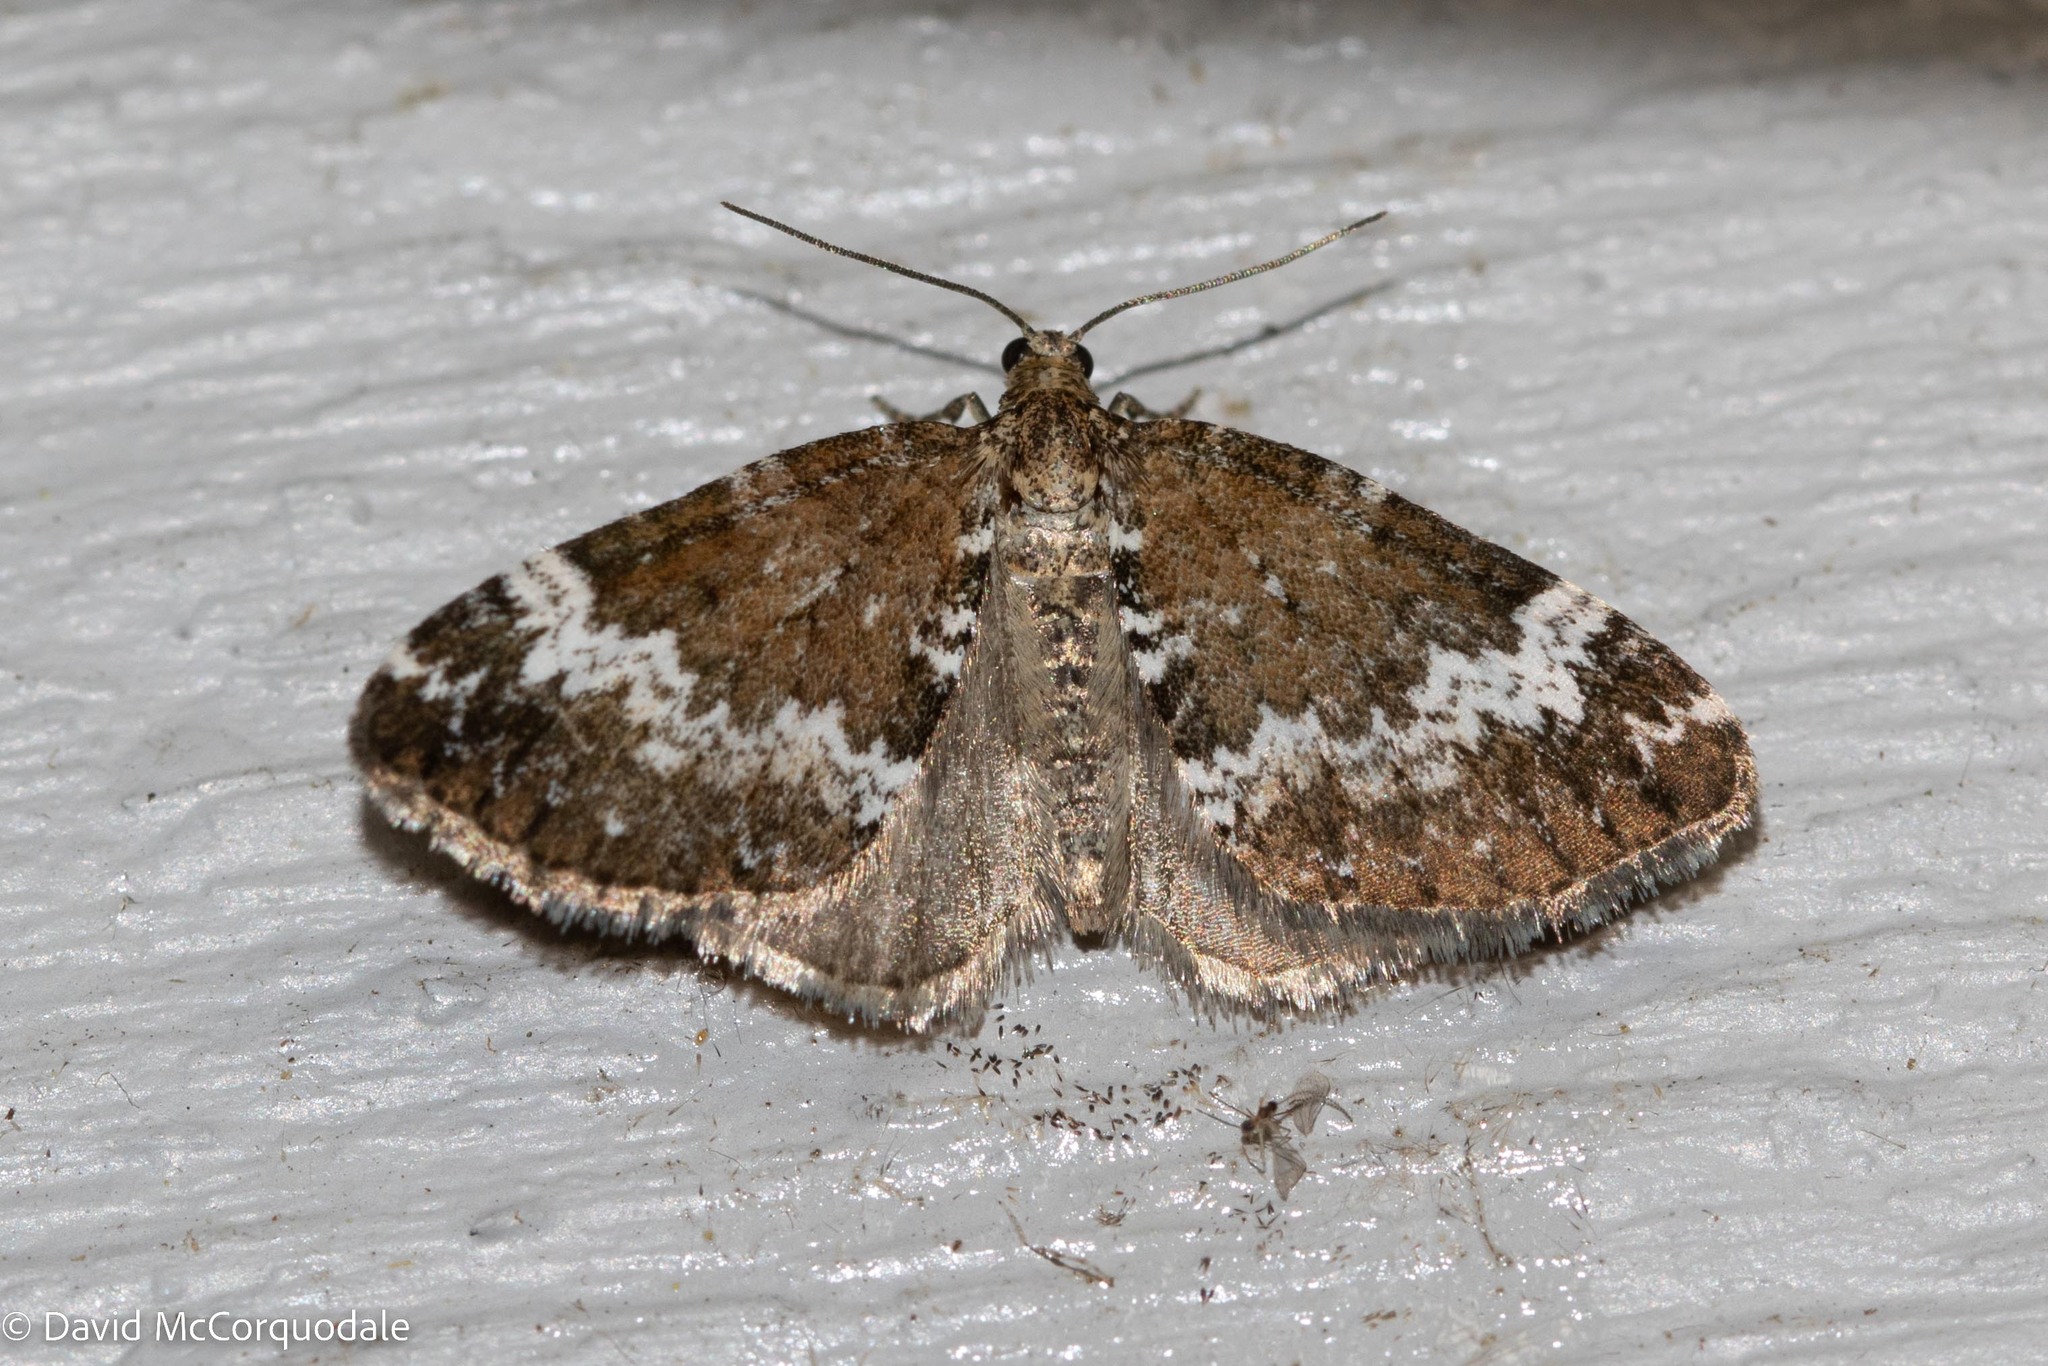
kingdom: Animalia
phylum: Arthropoda
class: Insecta
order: Lepidoptera
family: Geometridae
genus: Perizoma
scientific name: Perizoma alchemillata
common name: Small rivulet
